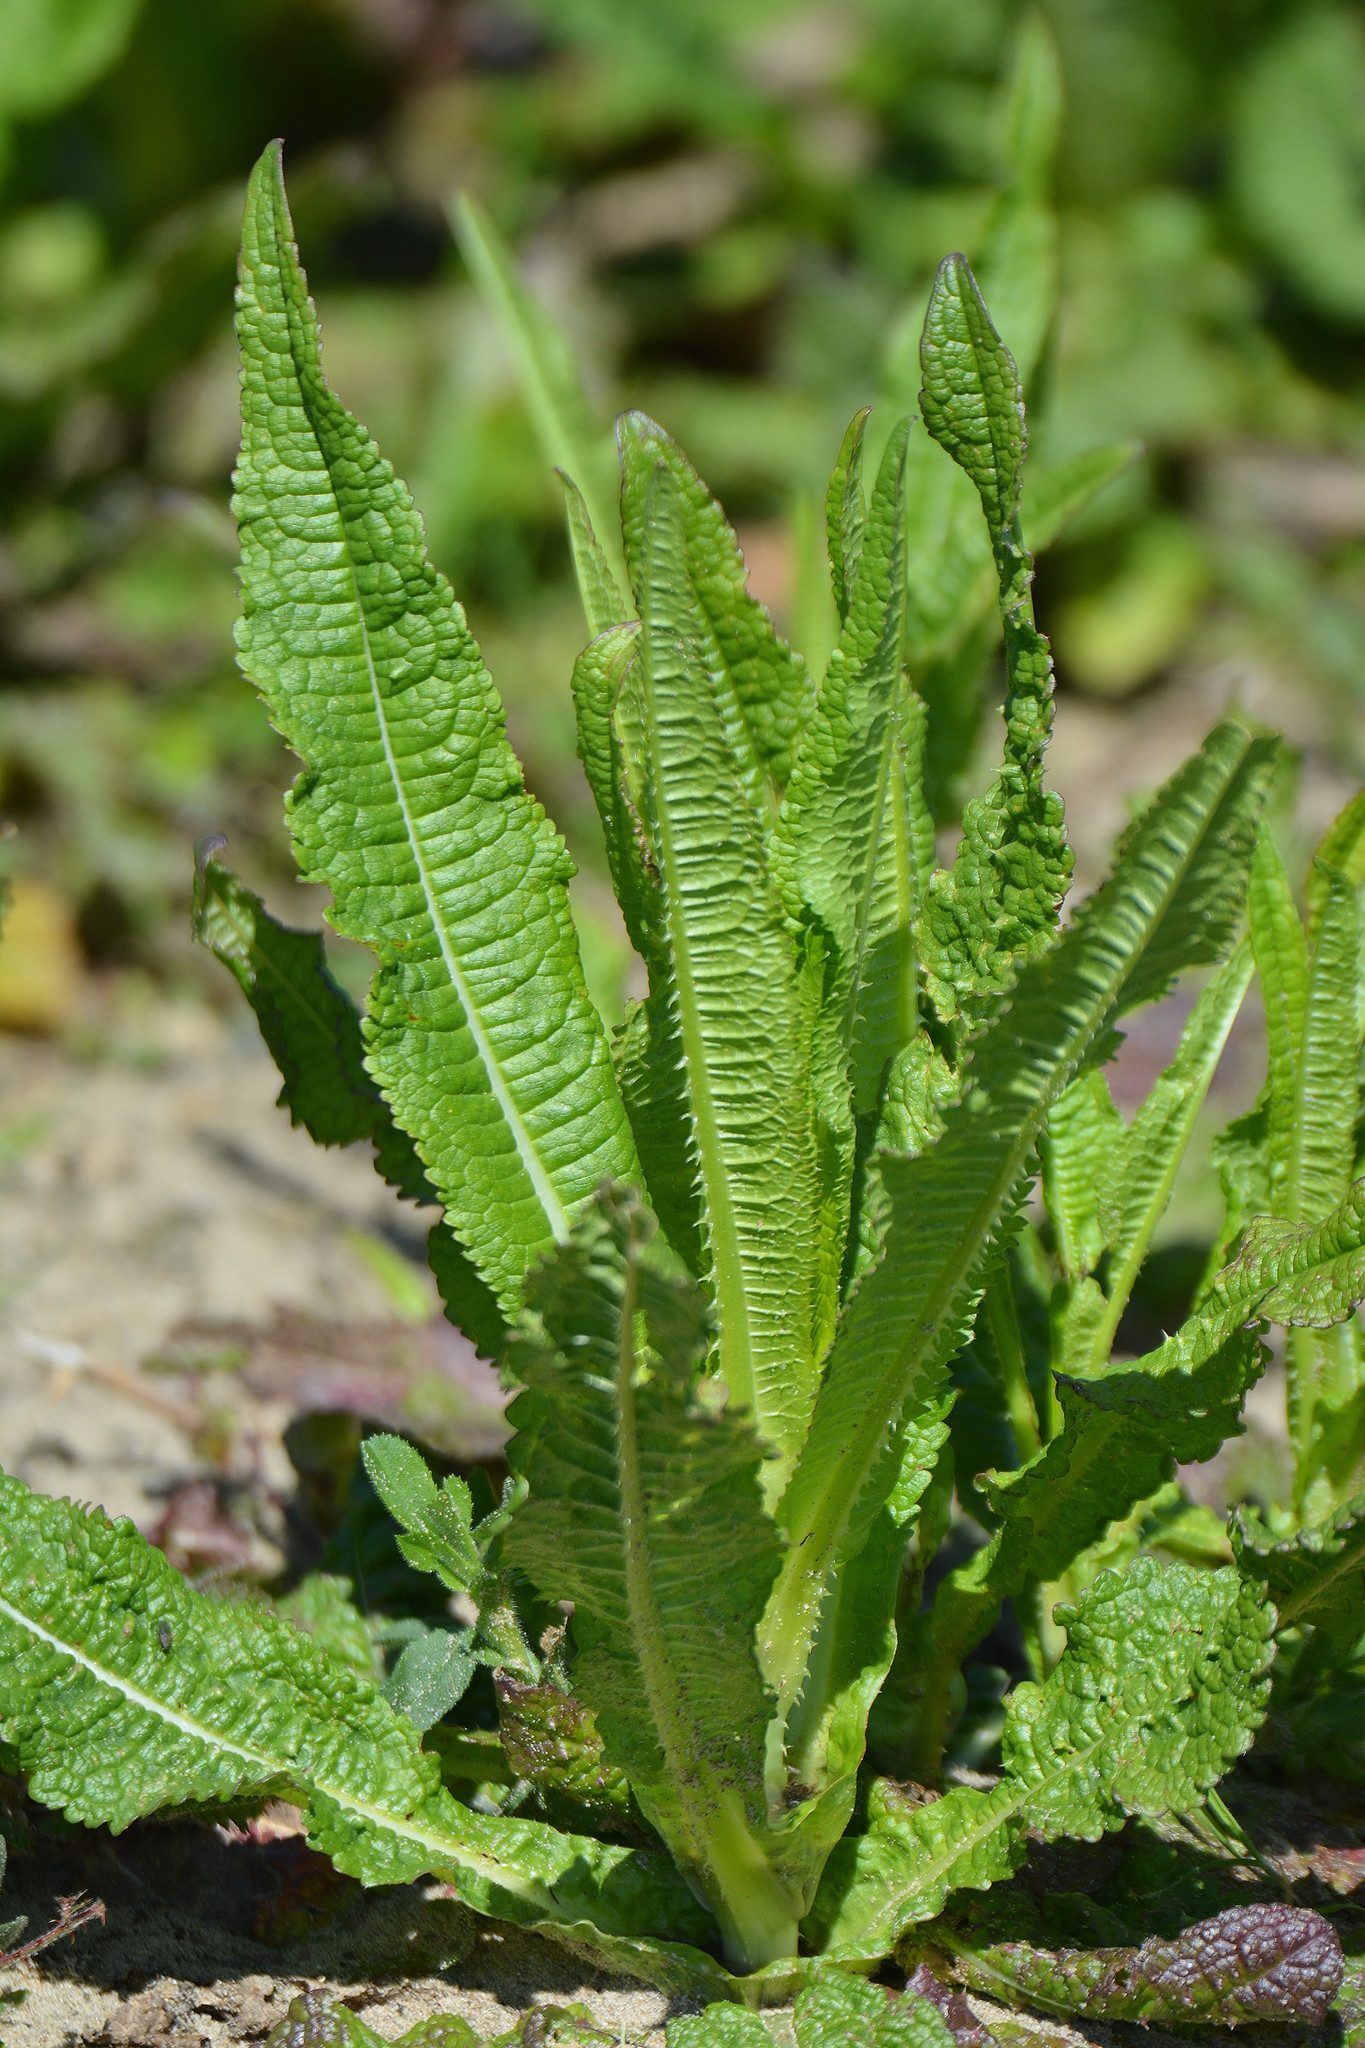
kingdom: Plantae
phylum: Tracheophyta
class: Magnoliopsida
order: Dipsacales
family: Caprifoliaceae
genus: Dipsacus
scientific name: Dipsacus fullonum
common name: Teasel
